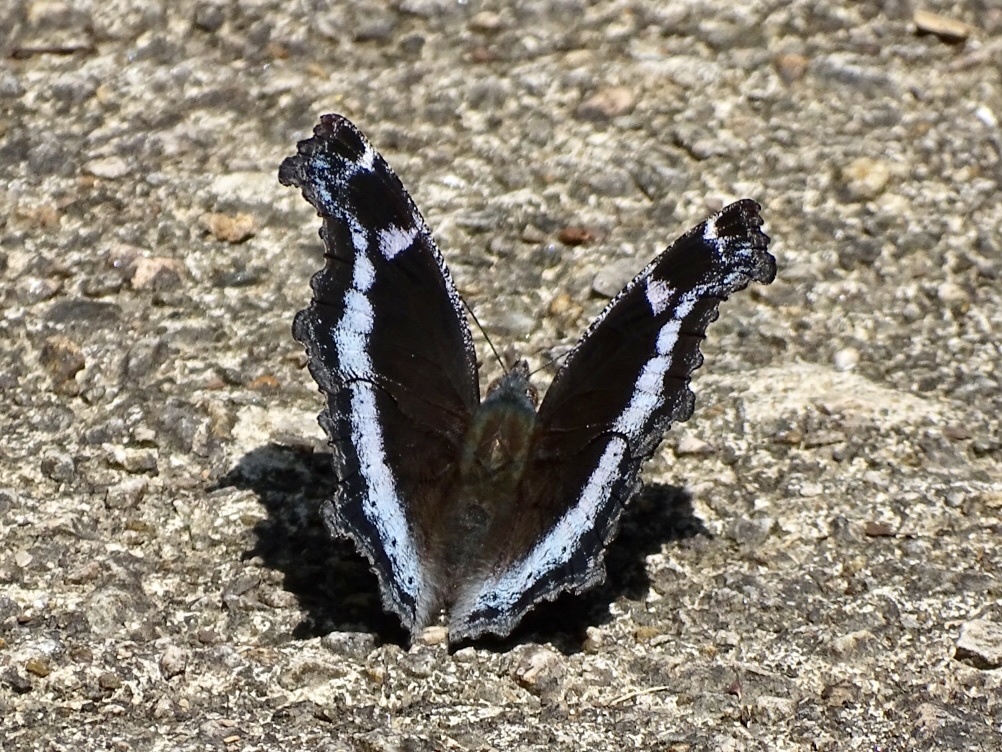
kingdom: Animalia
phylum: Arthropoda
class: Insecta
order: Lepidoptera
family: Nymphalidae
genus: Vanessa
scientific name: Vanessa Kaniska canace
